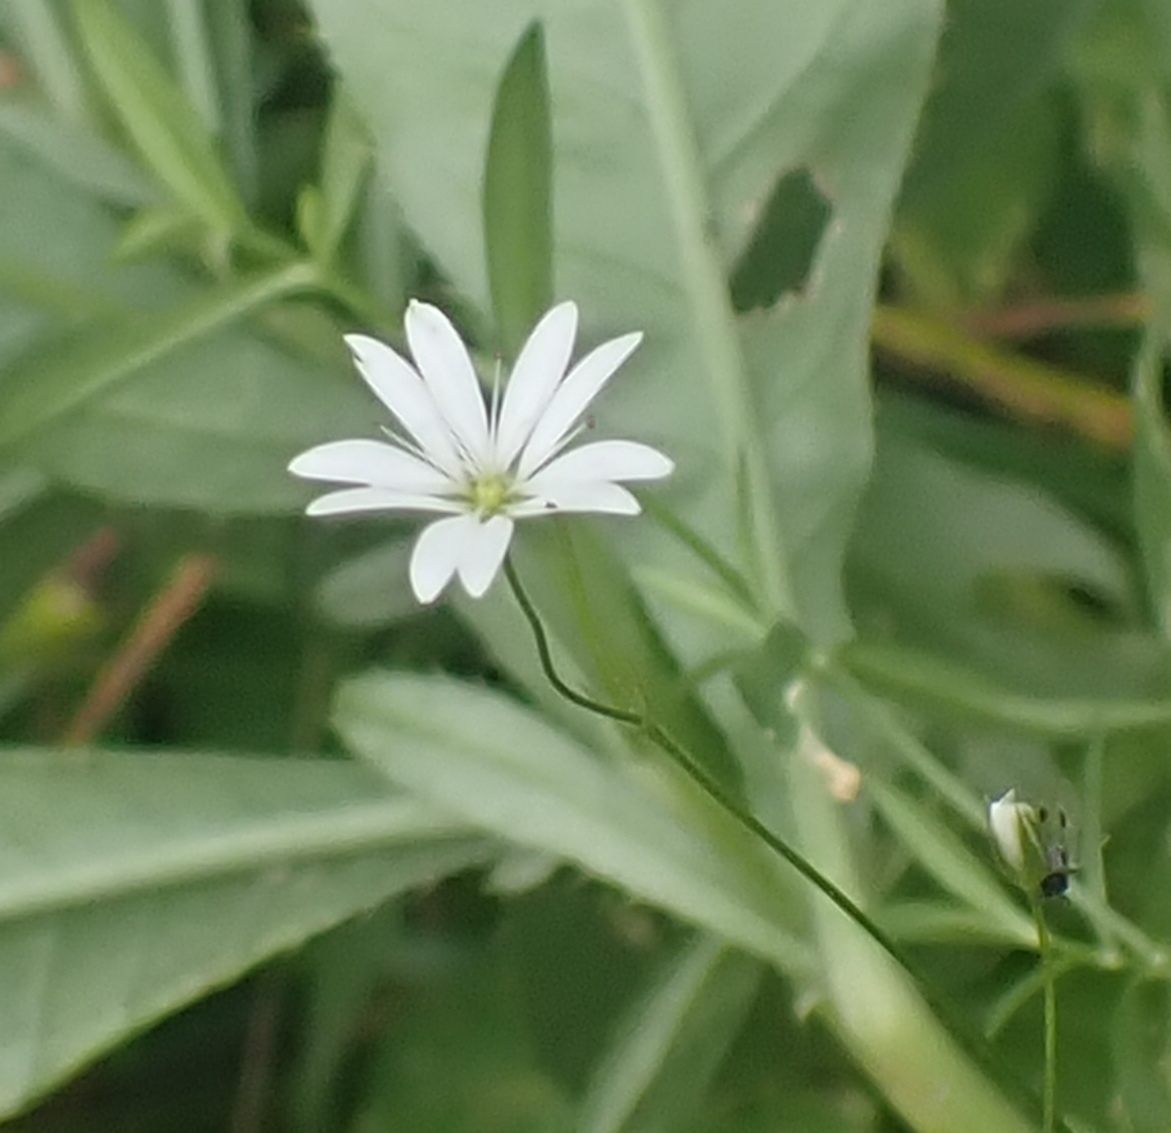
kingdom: Plantae
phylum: Tracheophyta
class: Magnoliopsida
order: Caryophyllales
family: Caryophyllaceae
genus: Stellaria
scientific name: Stellaria graminea
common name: Grass-like starwort
